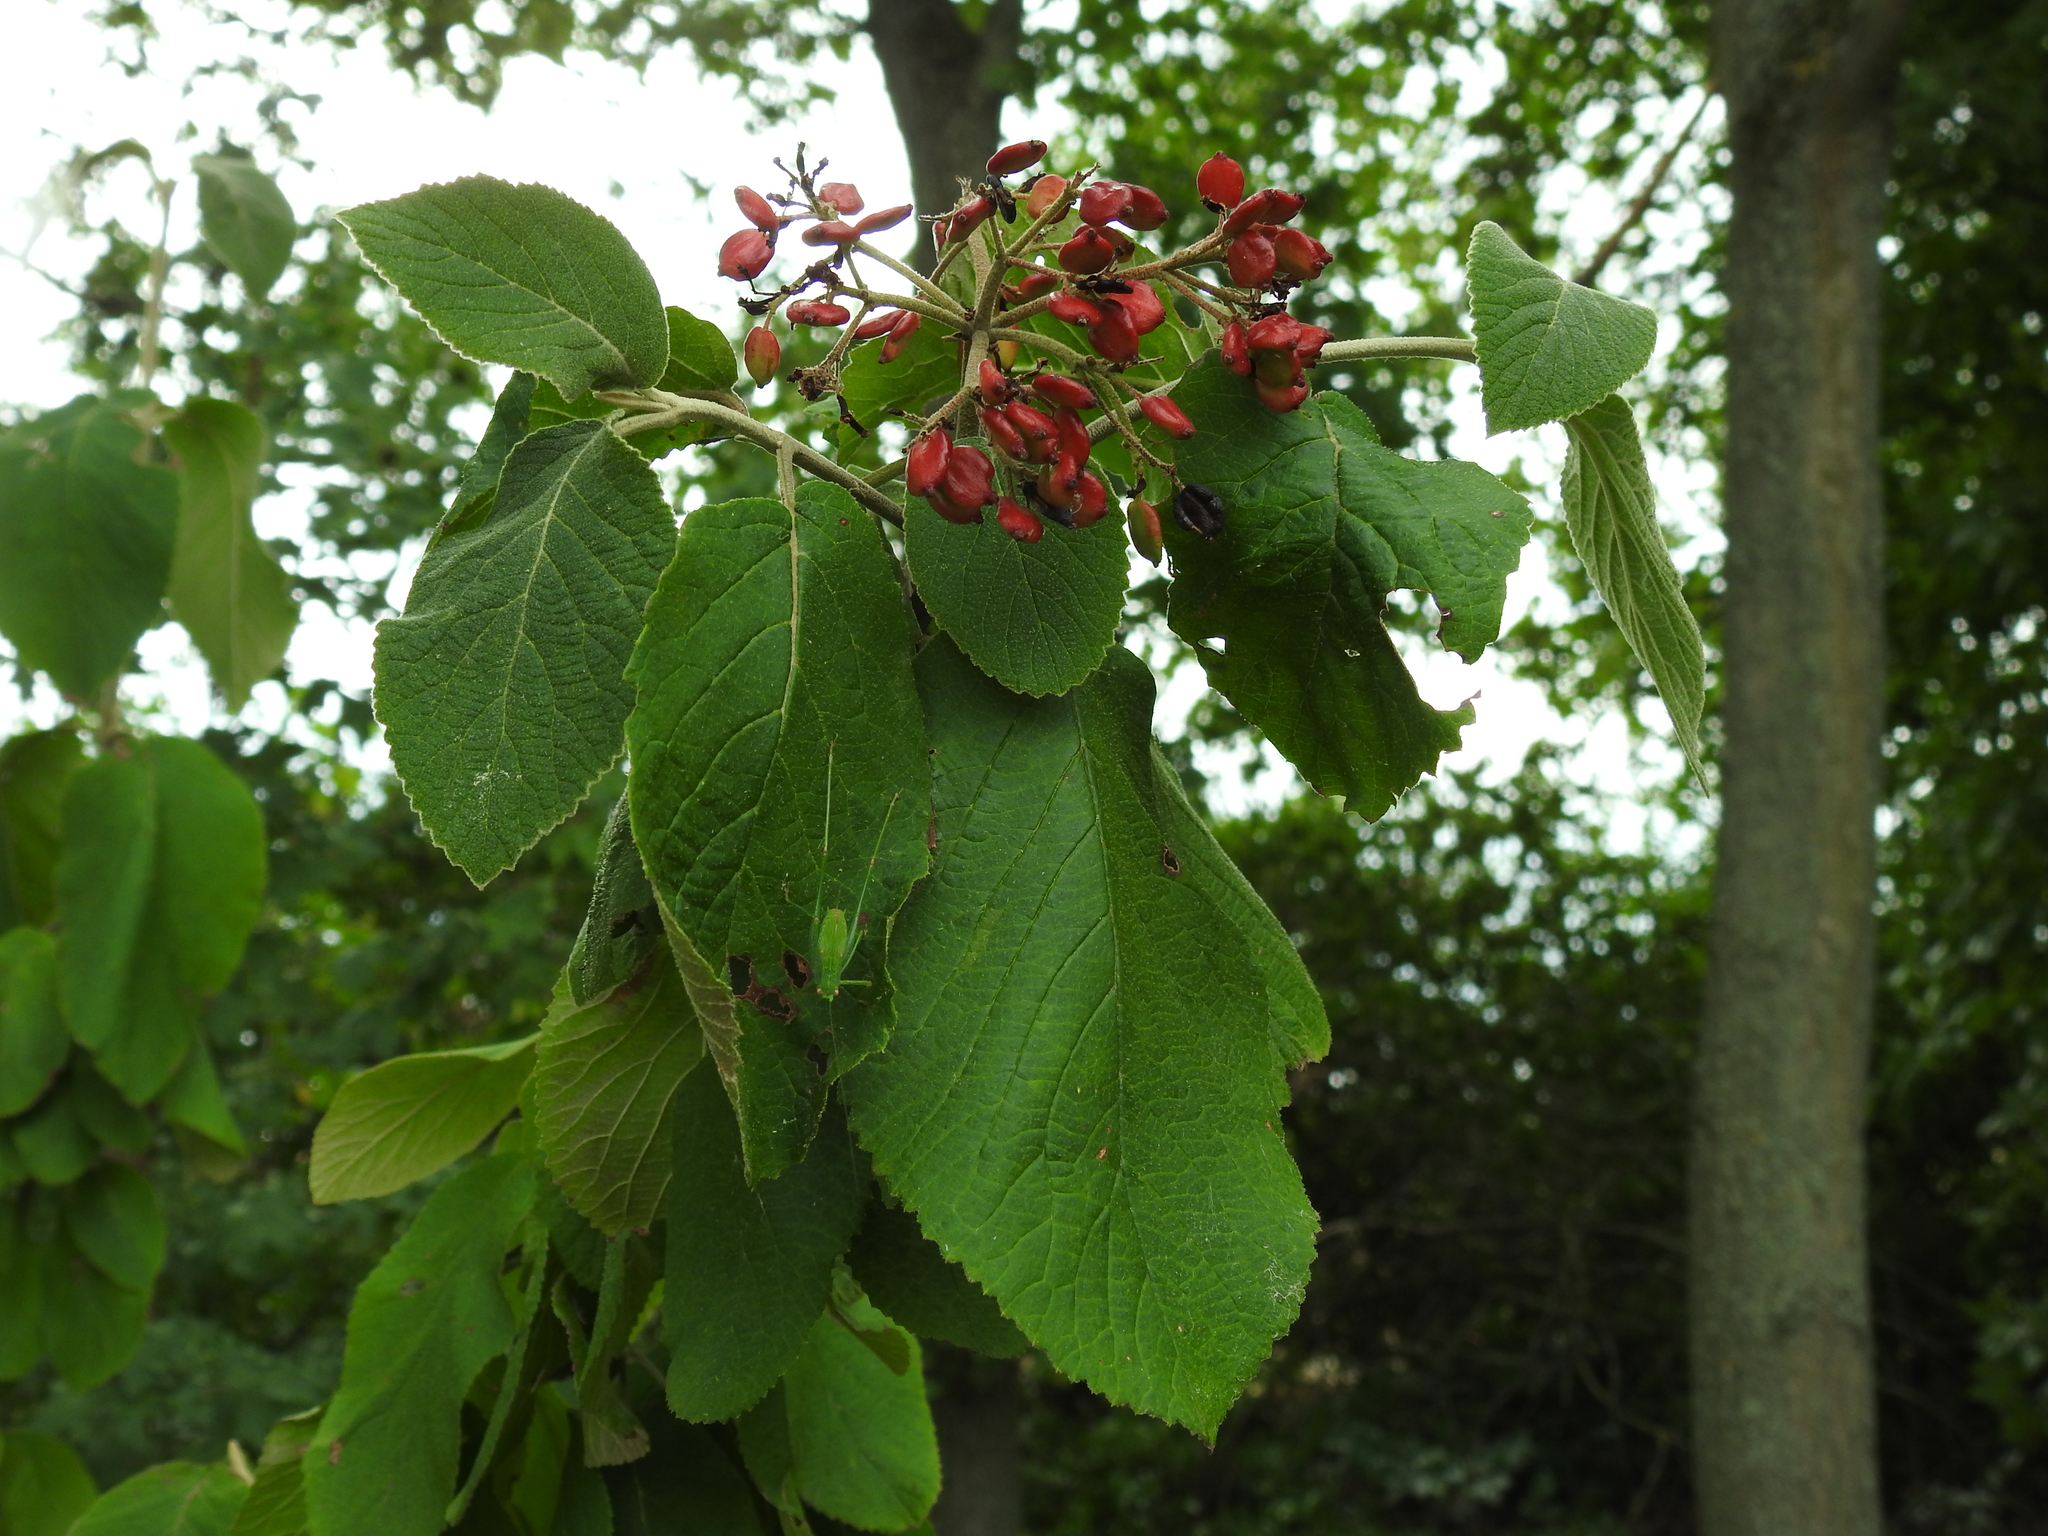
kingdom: Plantae
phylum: Tracheophyta
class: Magnoliopsida
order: Dipsacales
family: Viburnaceae
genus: Viburnum
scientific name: Viburnum lantana
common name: Wayfaring tree
